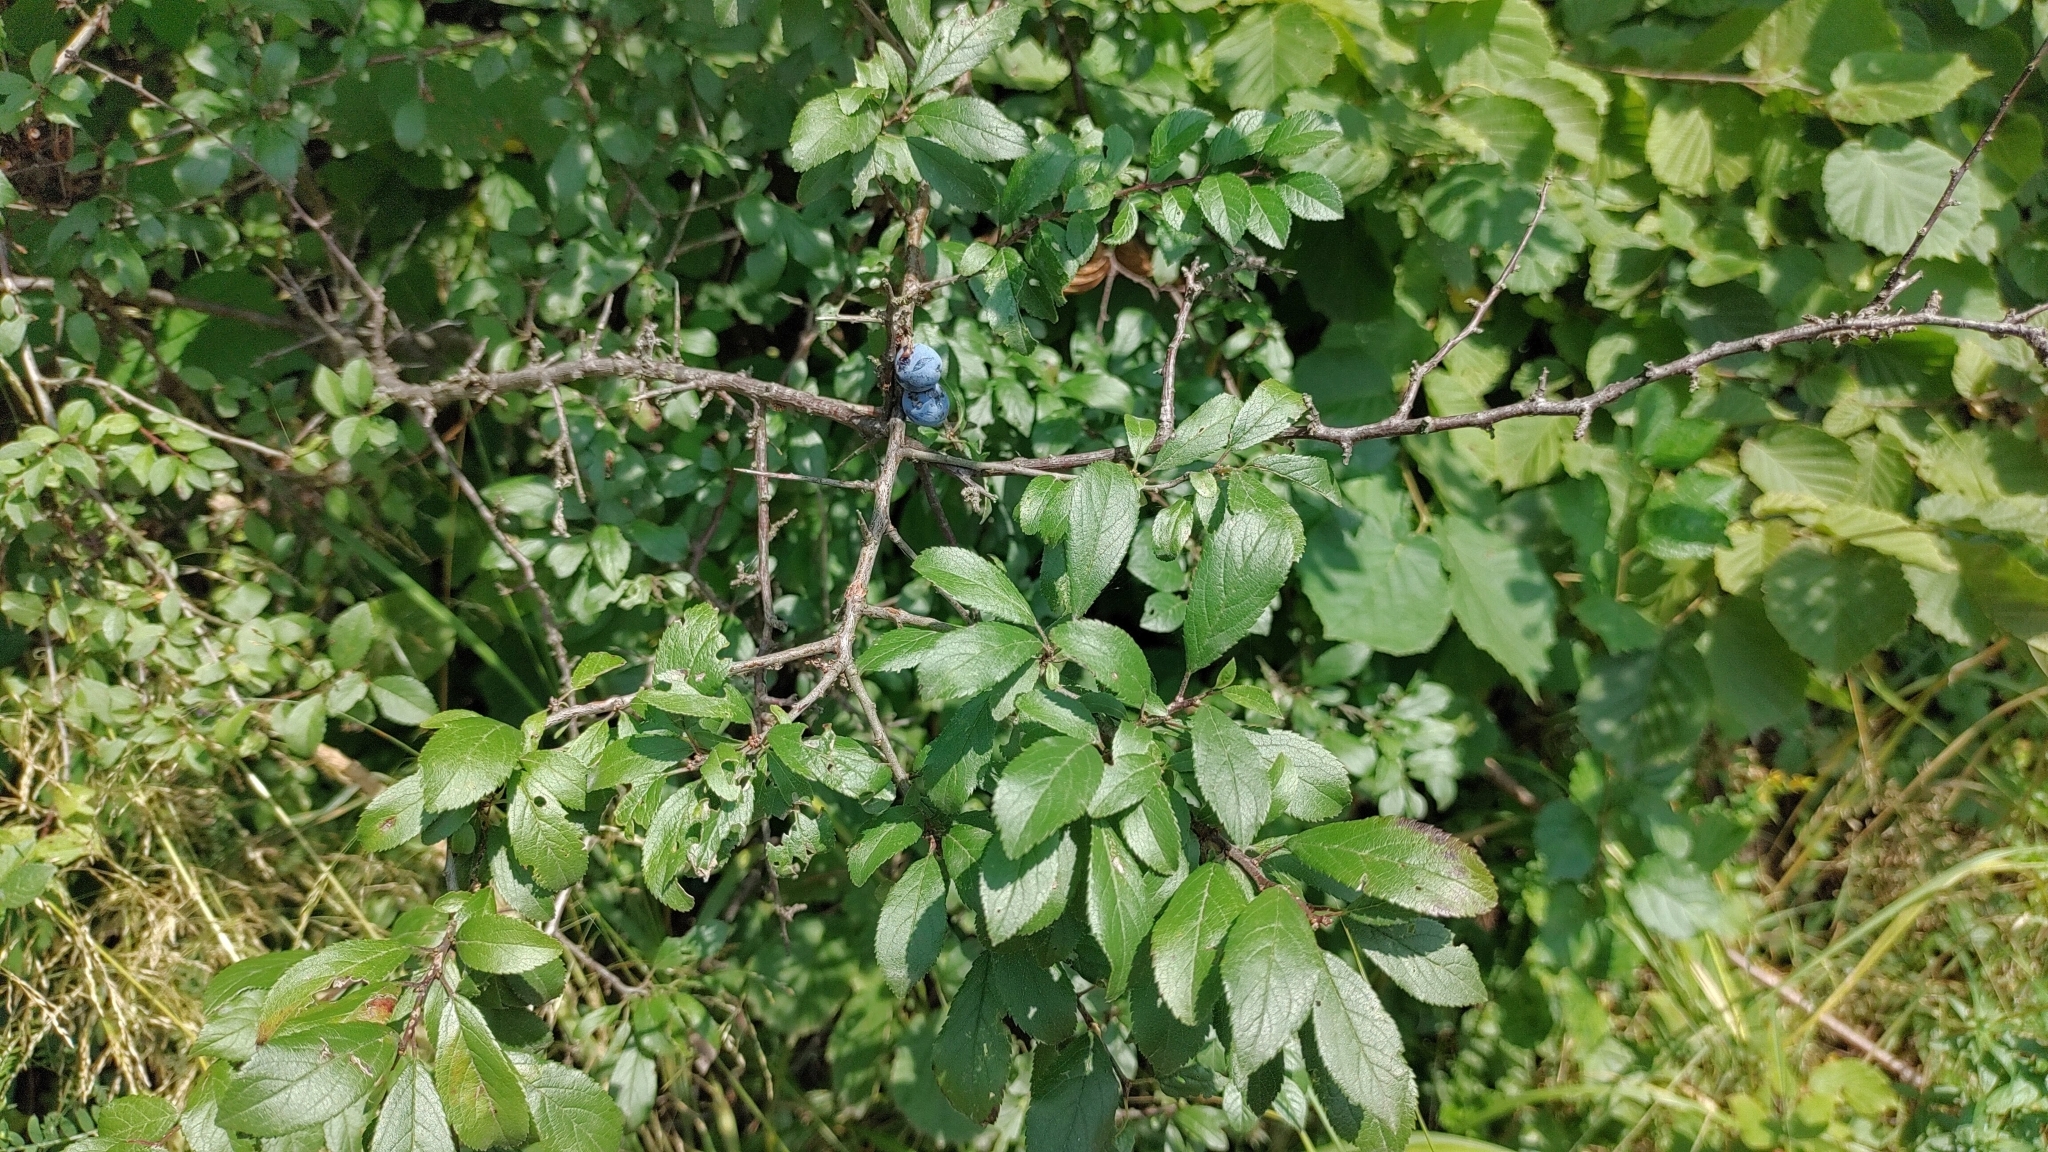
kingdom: Plantae
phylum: Tracheophyta
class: Magnoliopsida
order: Rosales
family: Rosaceae
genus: Prunus
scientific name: Prunus spinosa
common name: Blackthorn
